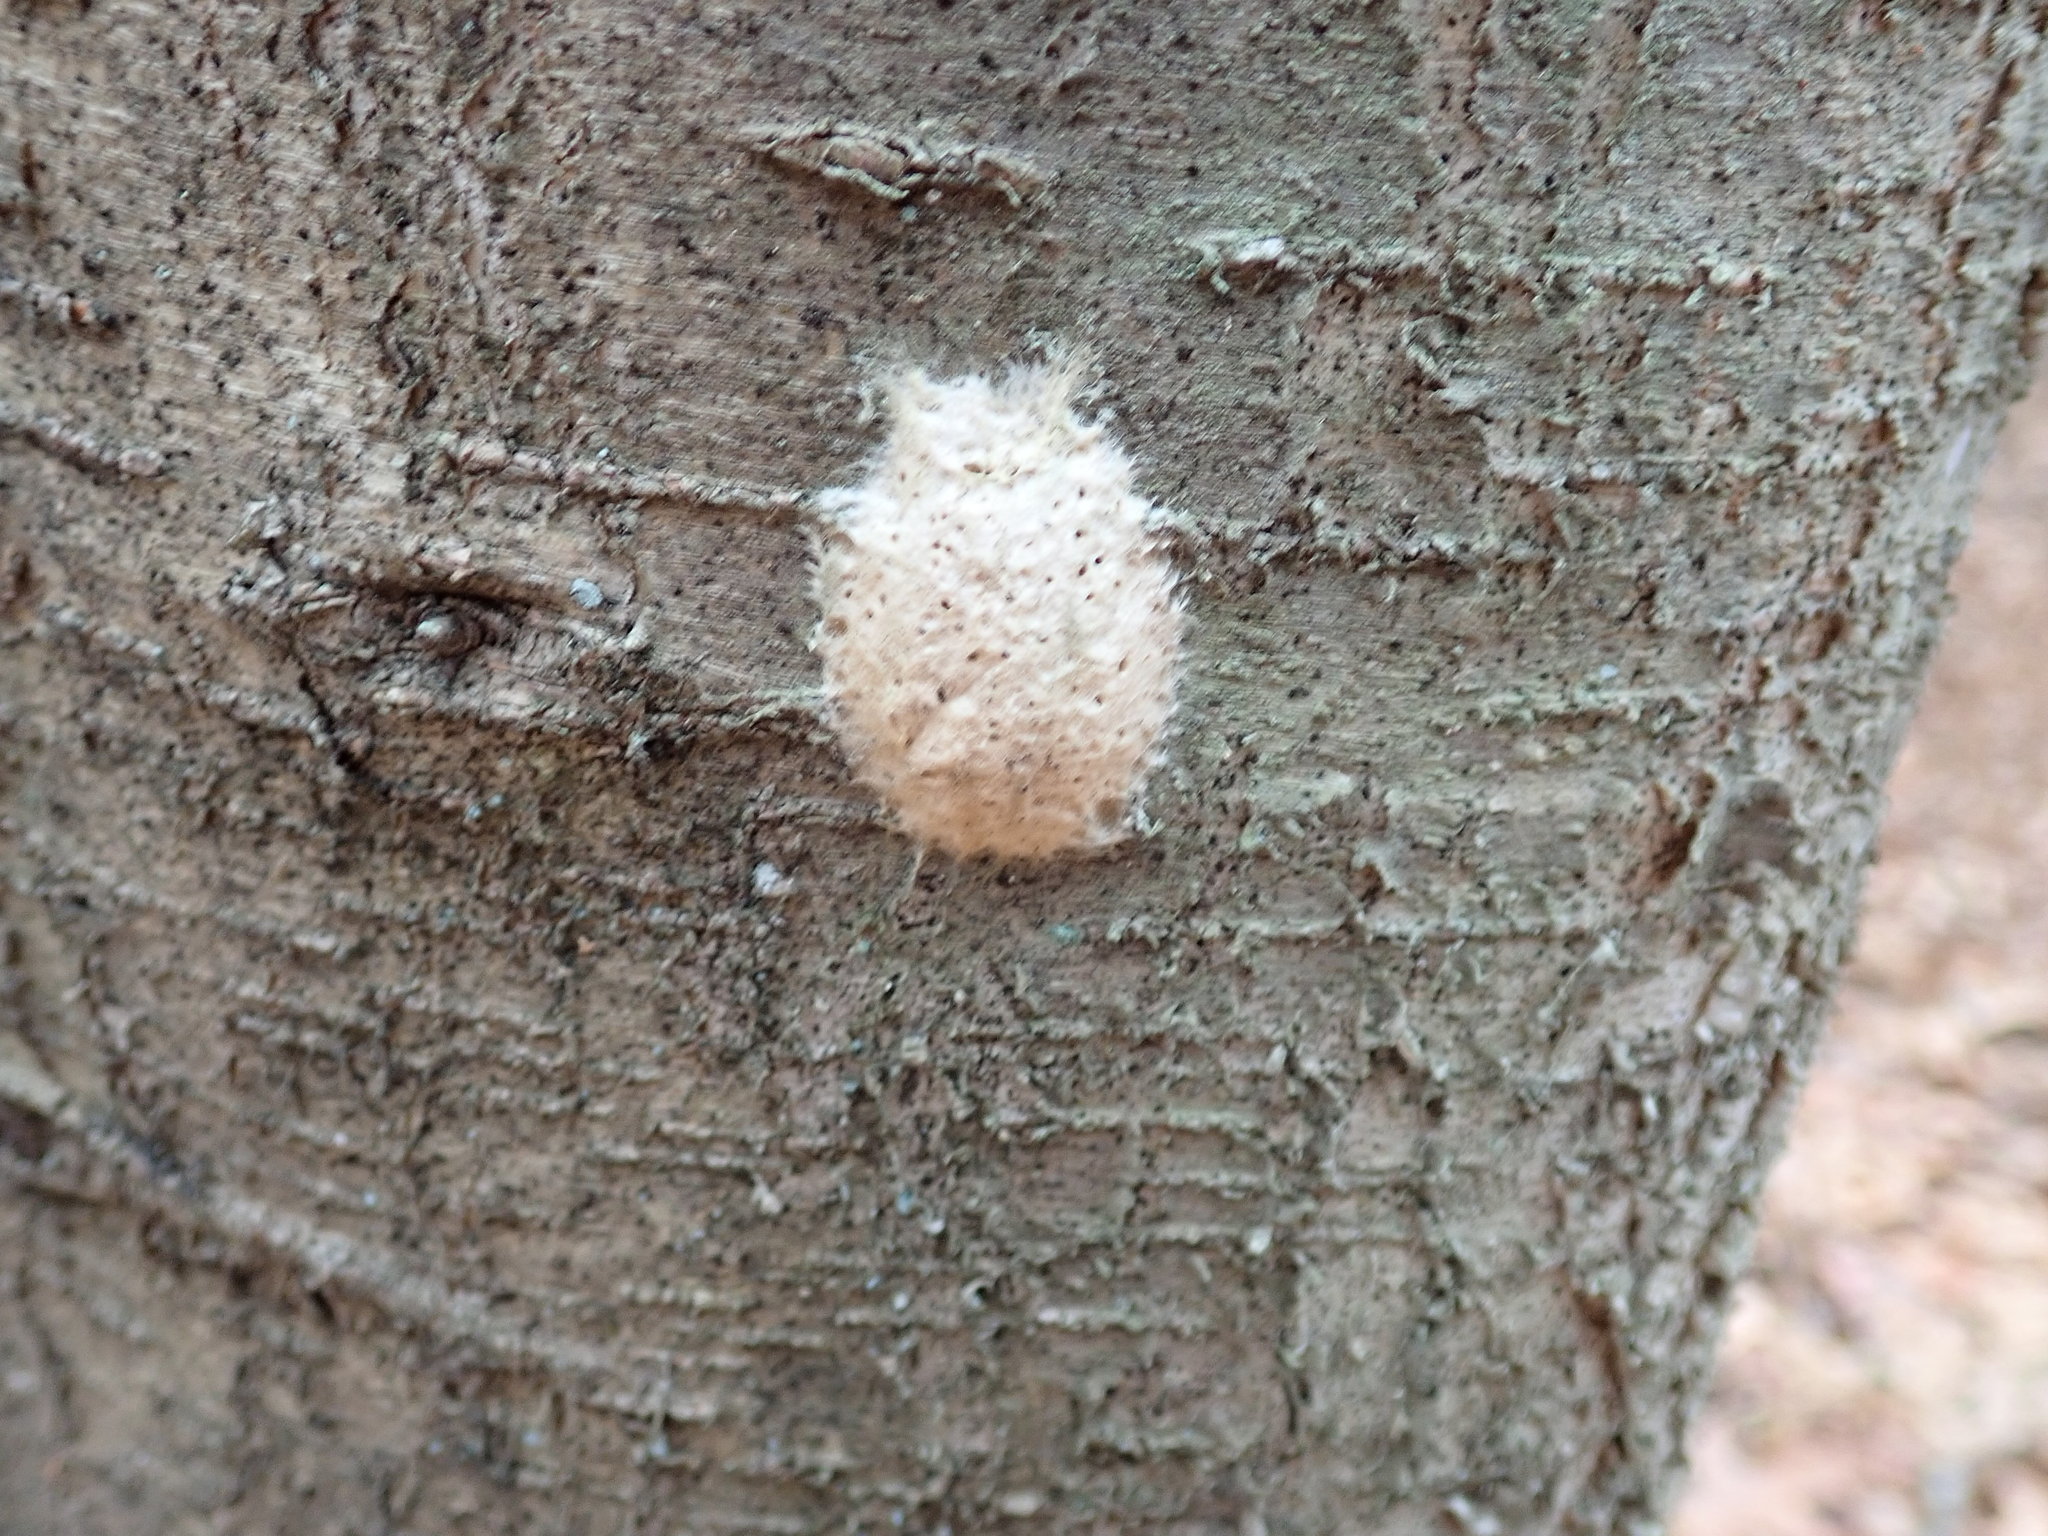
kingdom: Animalia
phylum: Arthropoda
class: Insecta
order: Lepidoptera
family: Erebidae
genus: Lymantria
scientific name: Lymantria dispar
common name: Gypsy moth
